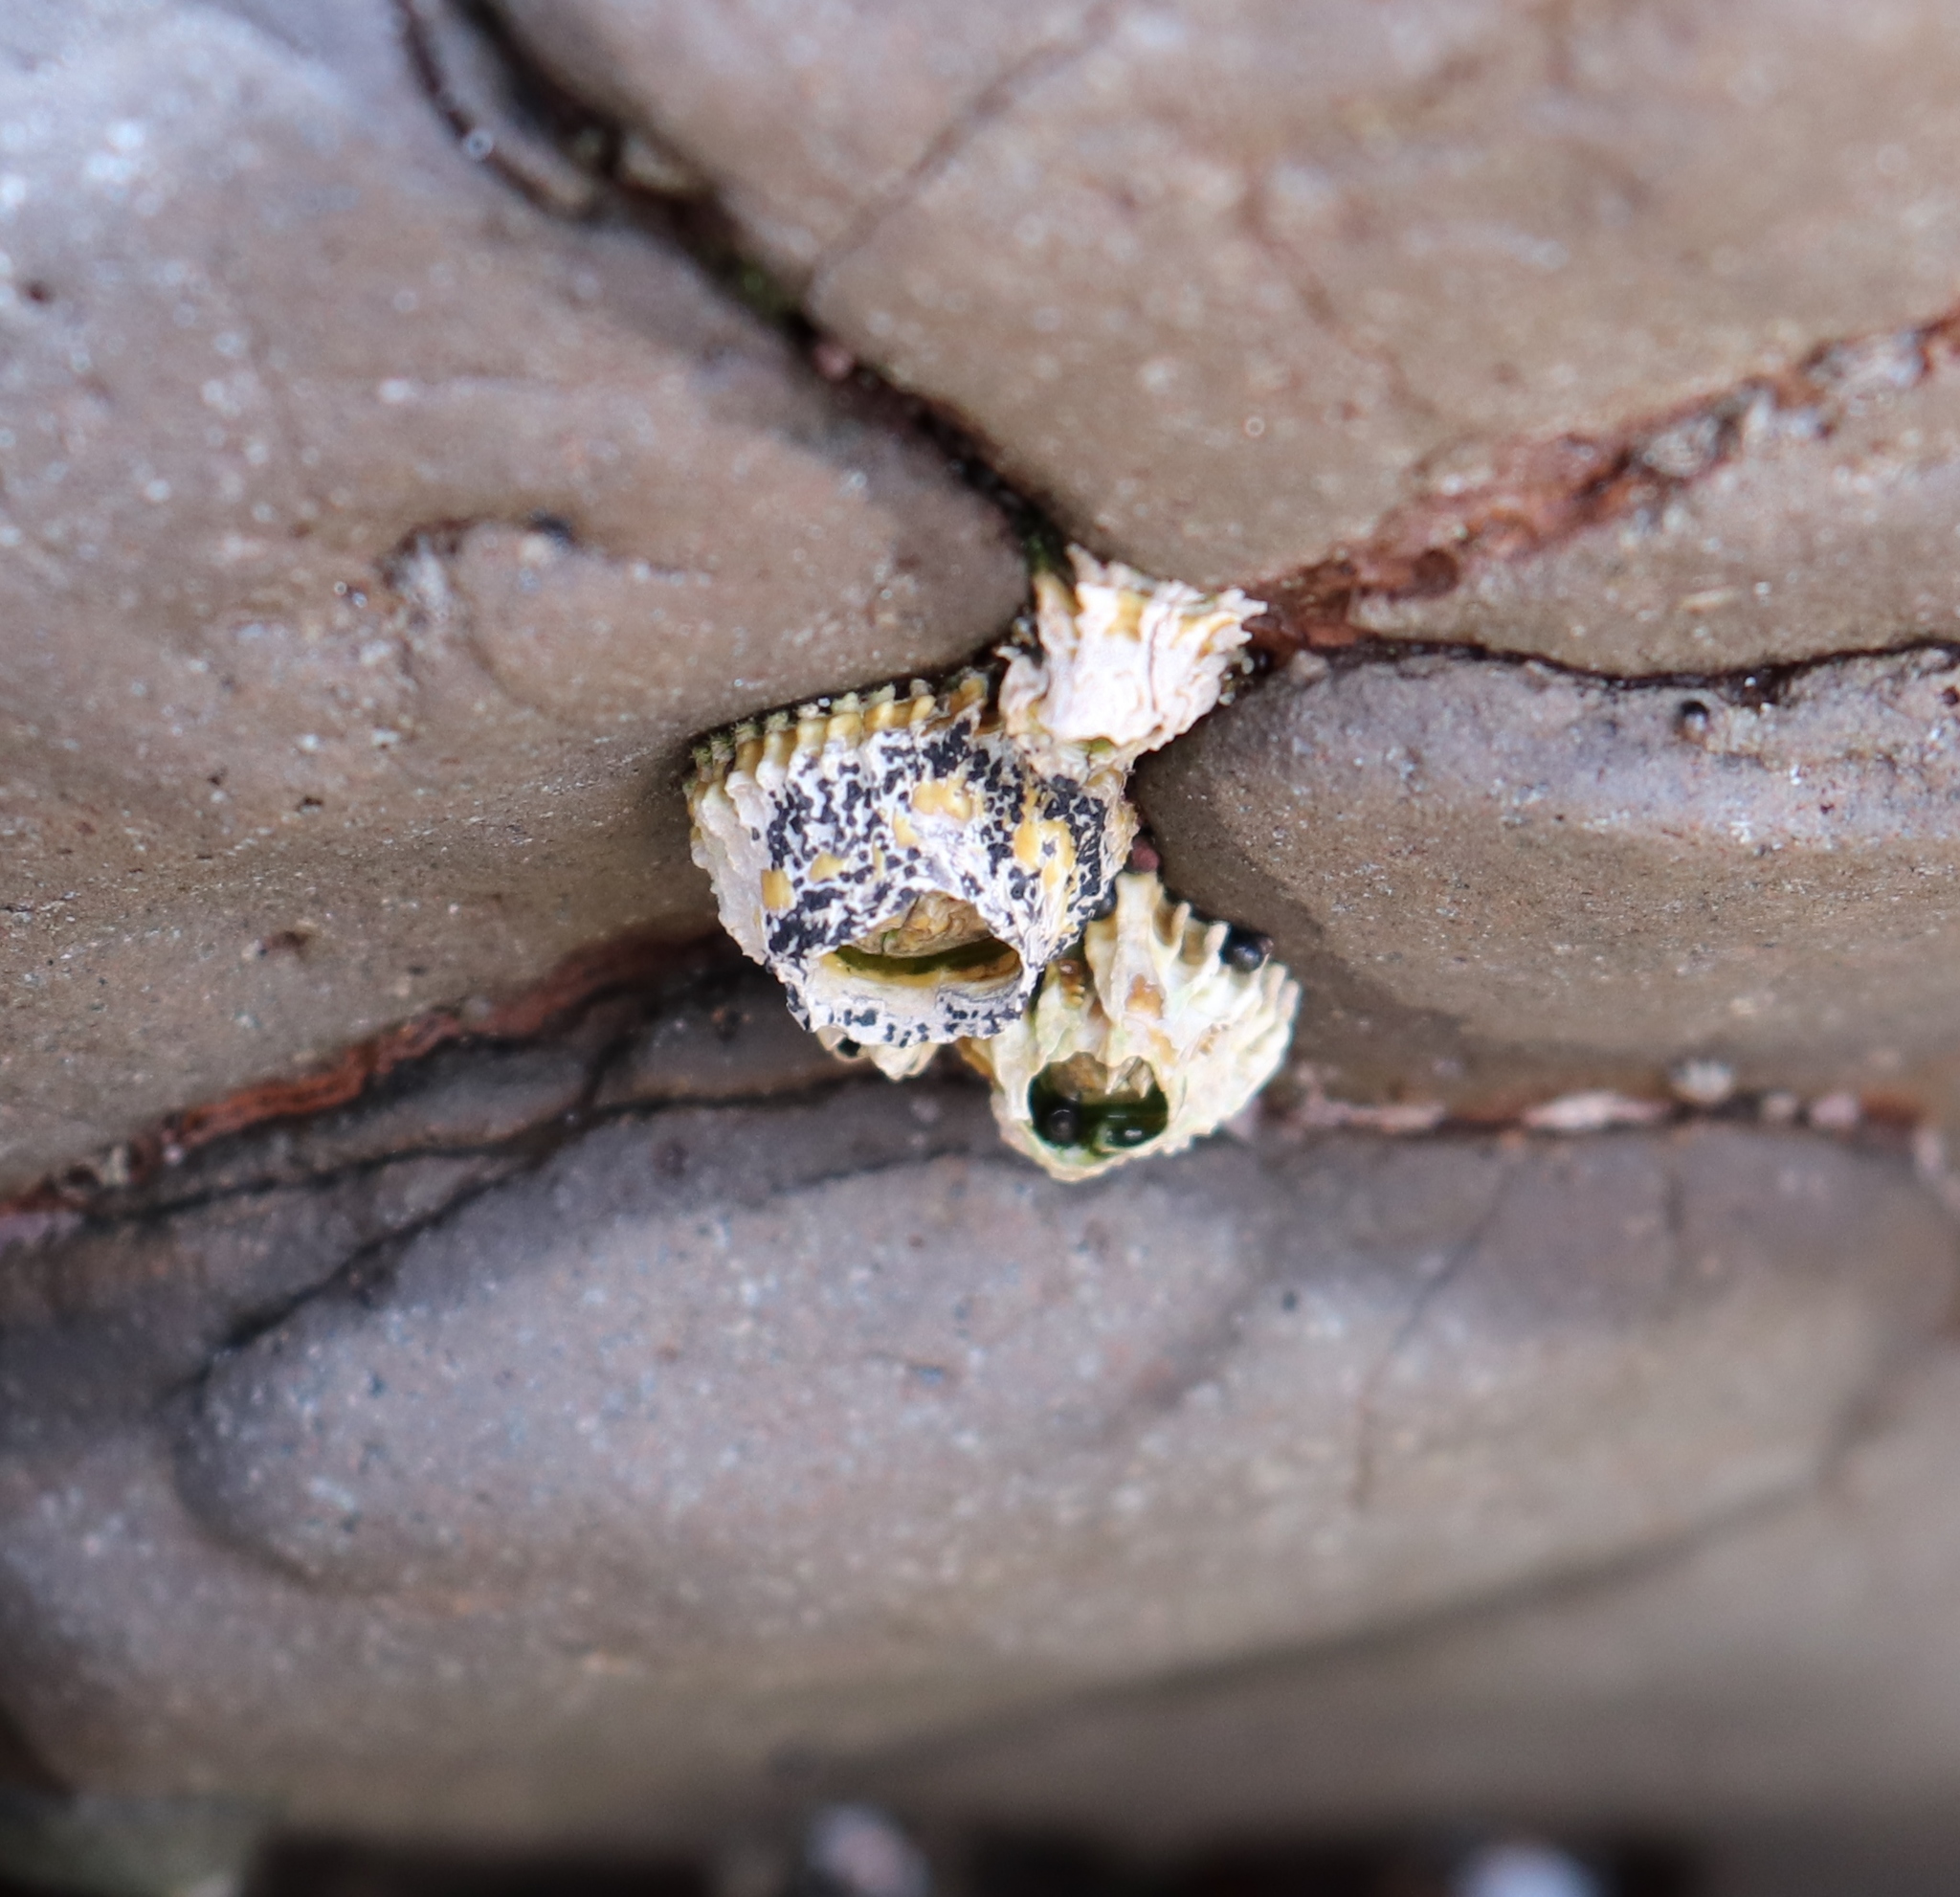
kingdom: Animalia
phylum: Arthropoda
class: Maxillopoda
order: Sessilia
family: Tetraclitidae
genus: Epopella
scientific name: Epopella plicata
